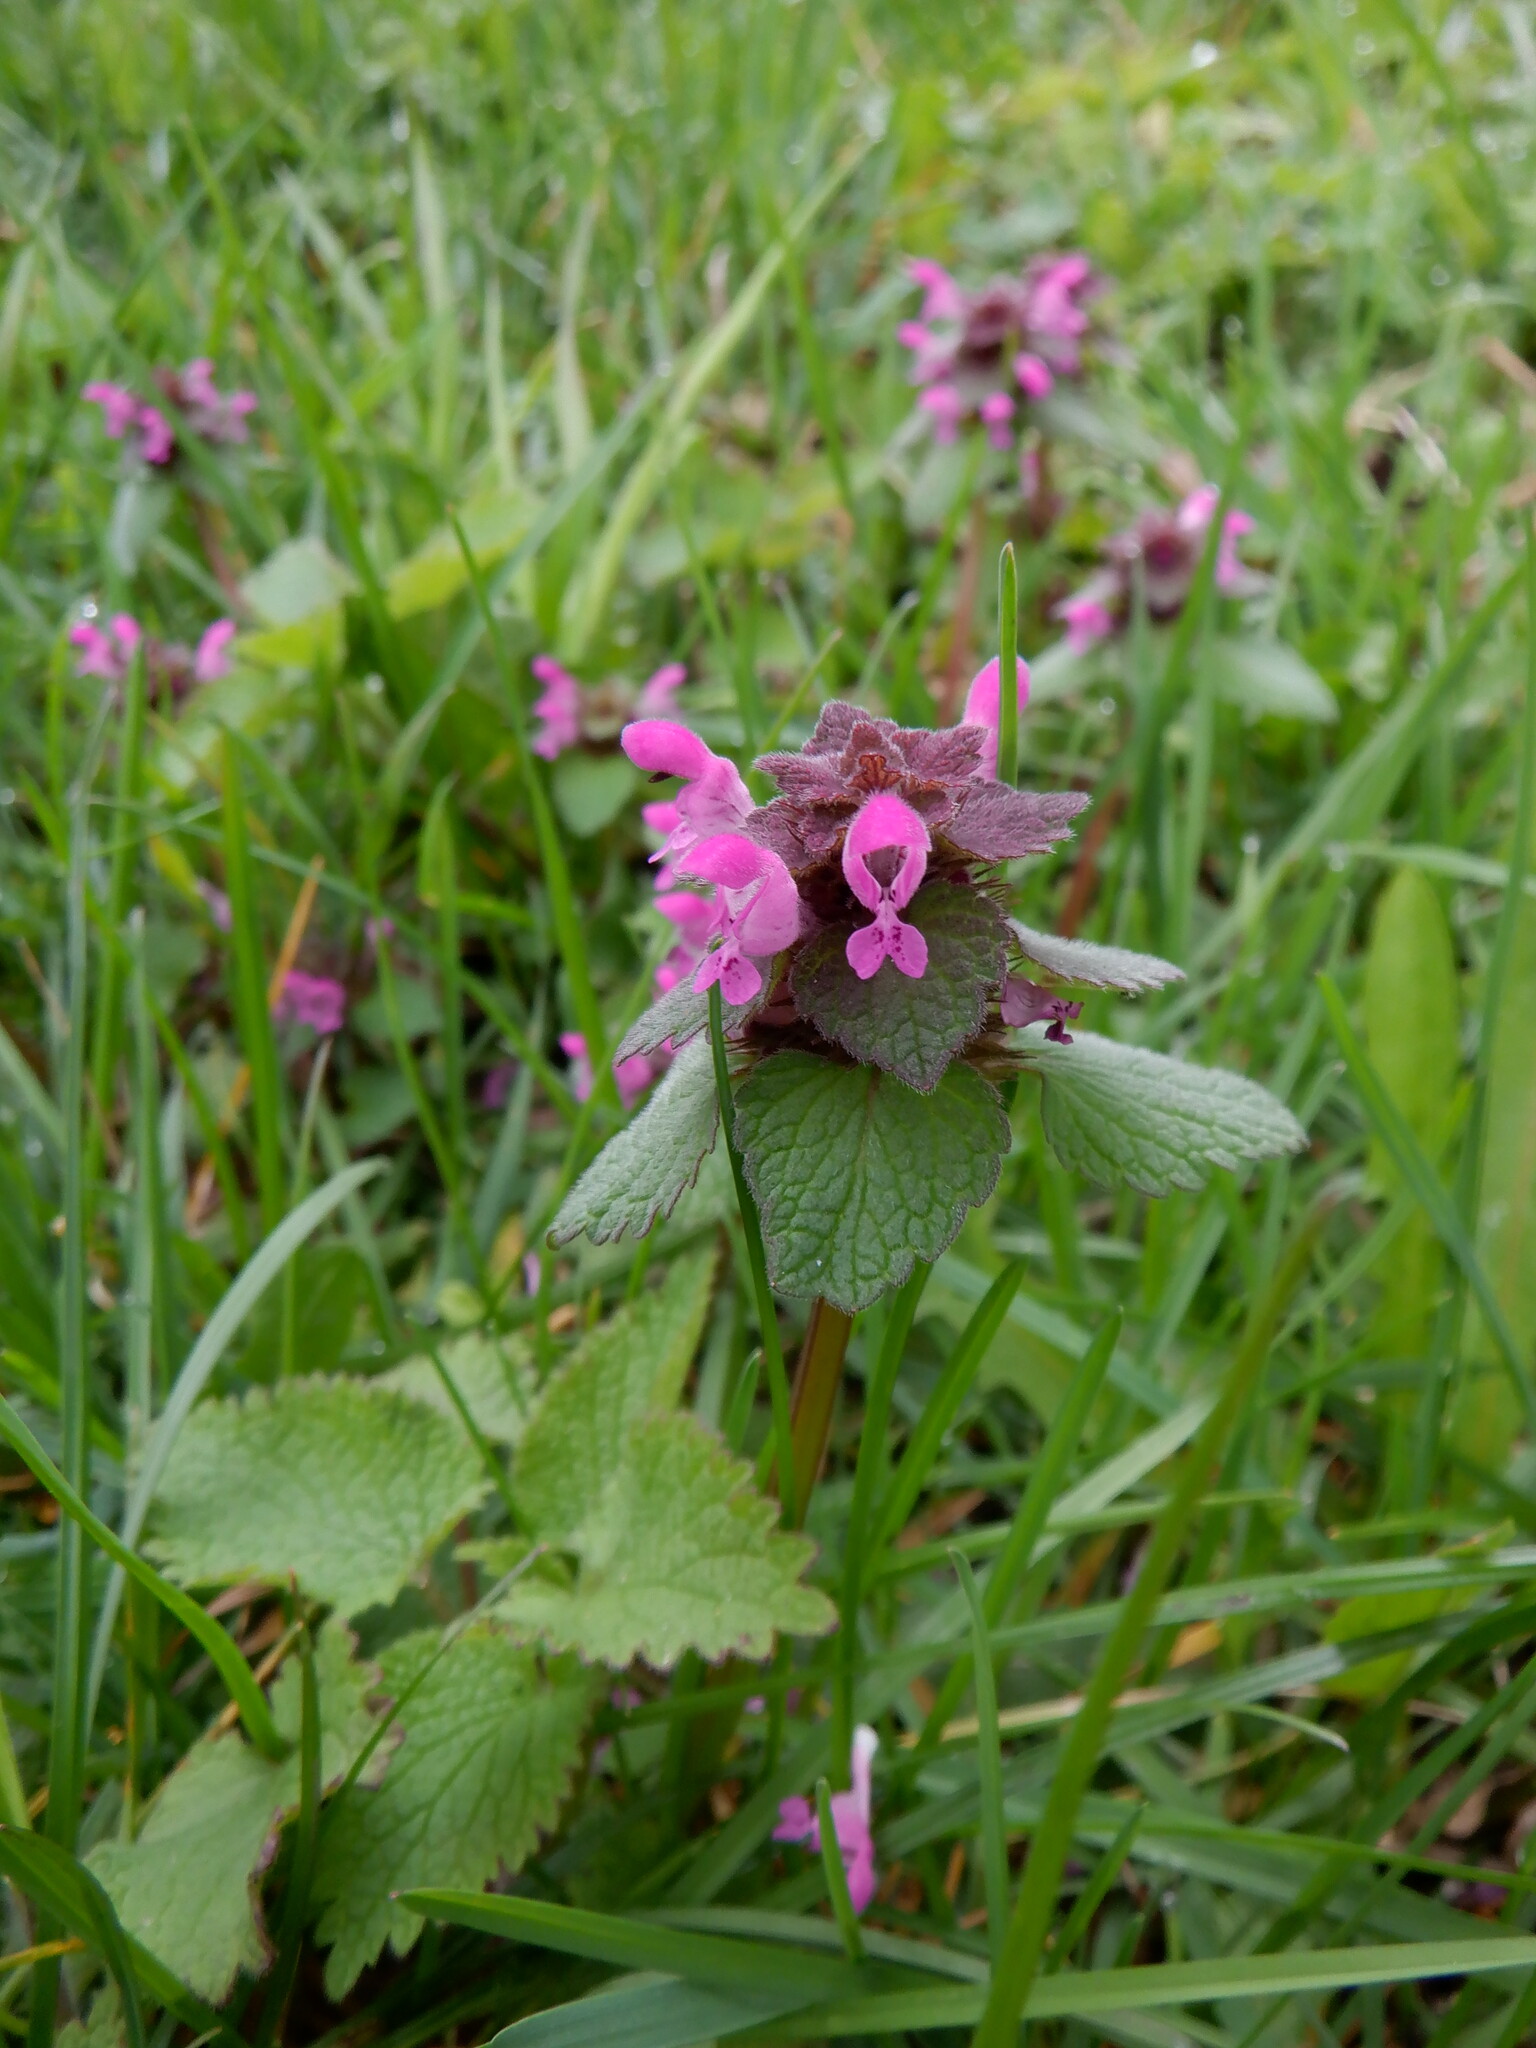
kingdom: Plantae
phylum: Tracheophyta
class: Magnoliopsida
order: Lamiales
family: Lamiaceae
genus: Lamium
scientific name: Lamium purpureum
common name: Red dead-nettle
